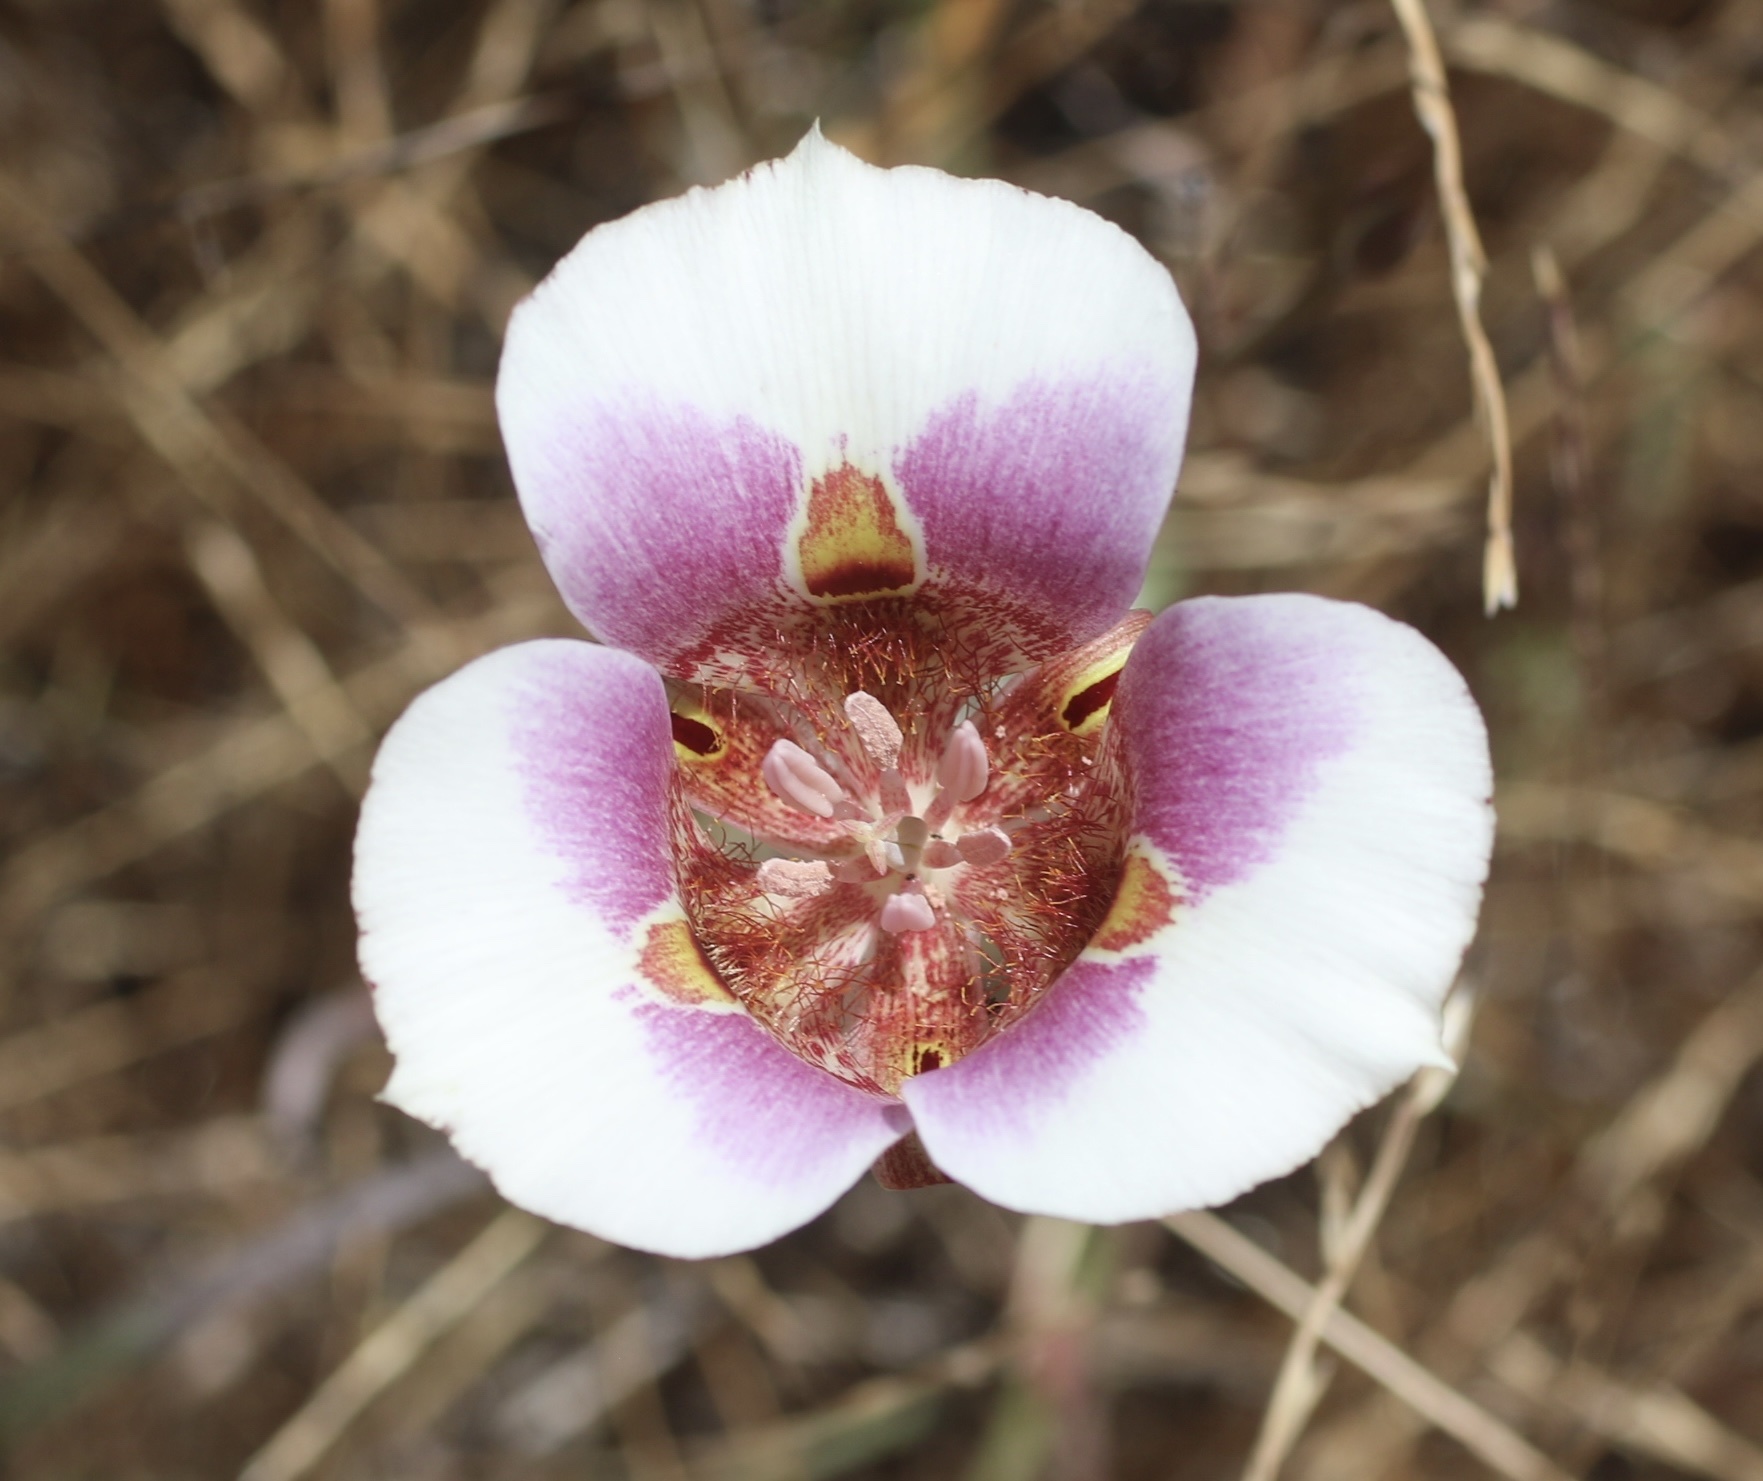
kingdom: Plantae
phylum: Tracheophyta
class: Liliopsida
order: Liliales
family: Liliaceae
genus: Calochortus
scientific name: Calochortus argillosus
